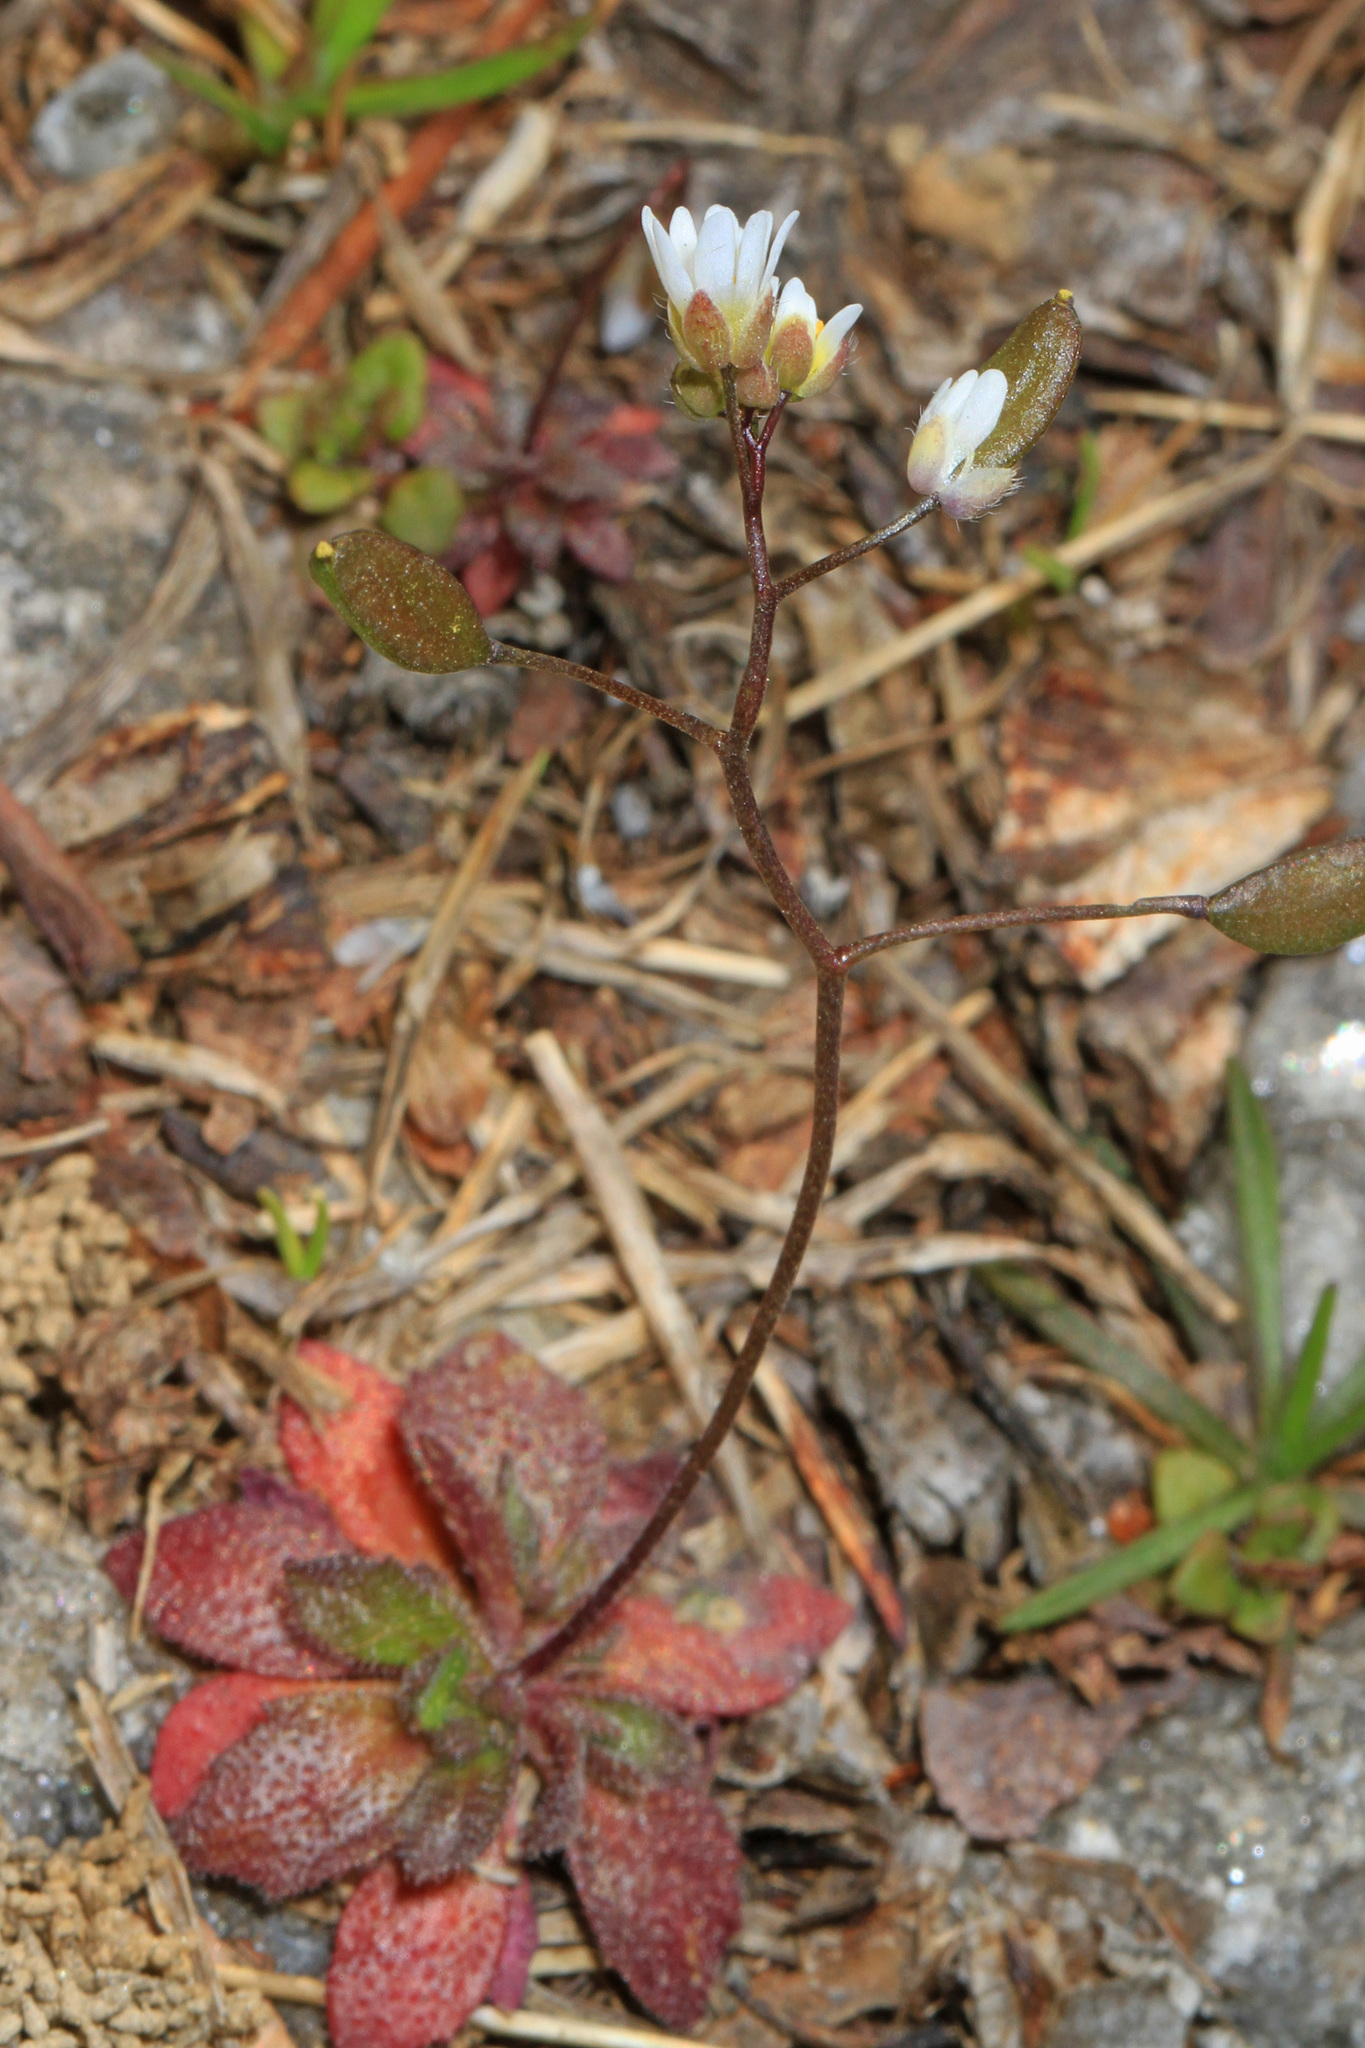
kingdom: Plantae
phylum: Tracheophyta
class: Magnoliopsida
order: Brassicales
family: Brassicaceae
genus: Draba
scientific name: Draba verna
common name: Spring draba
